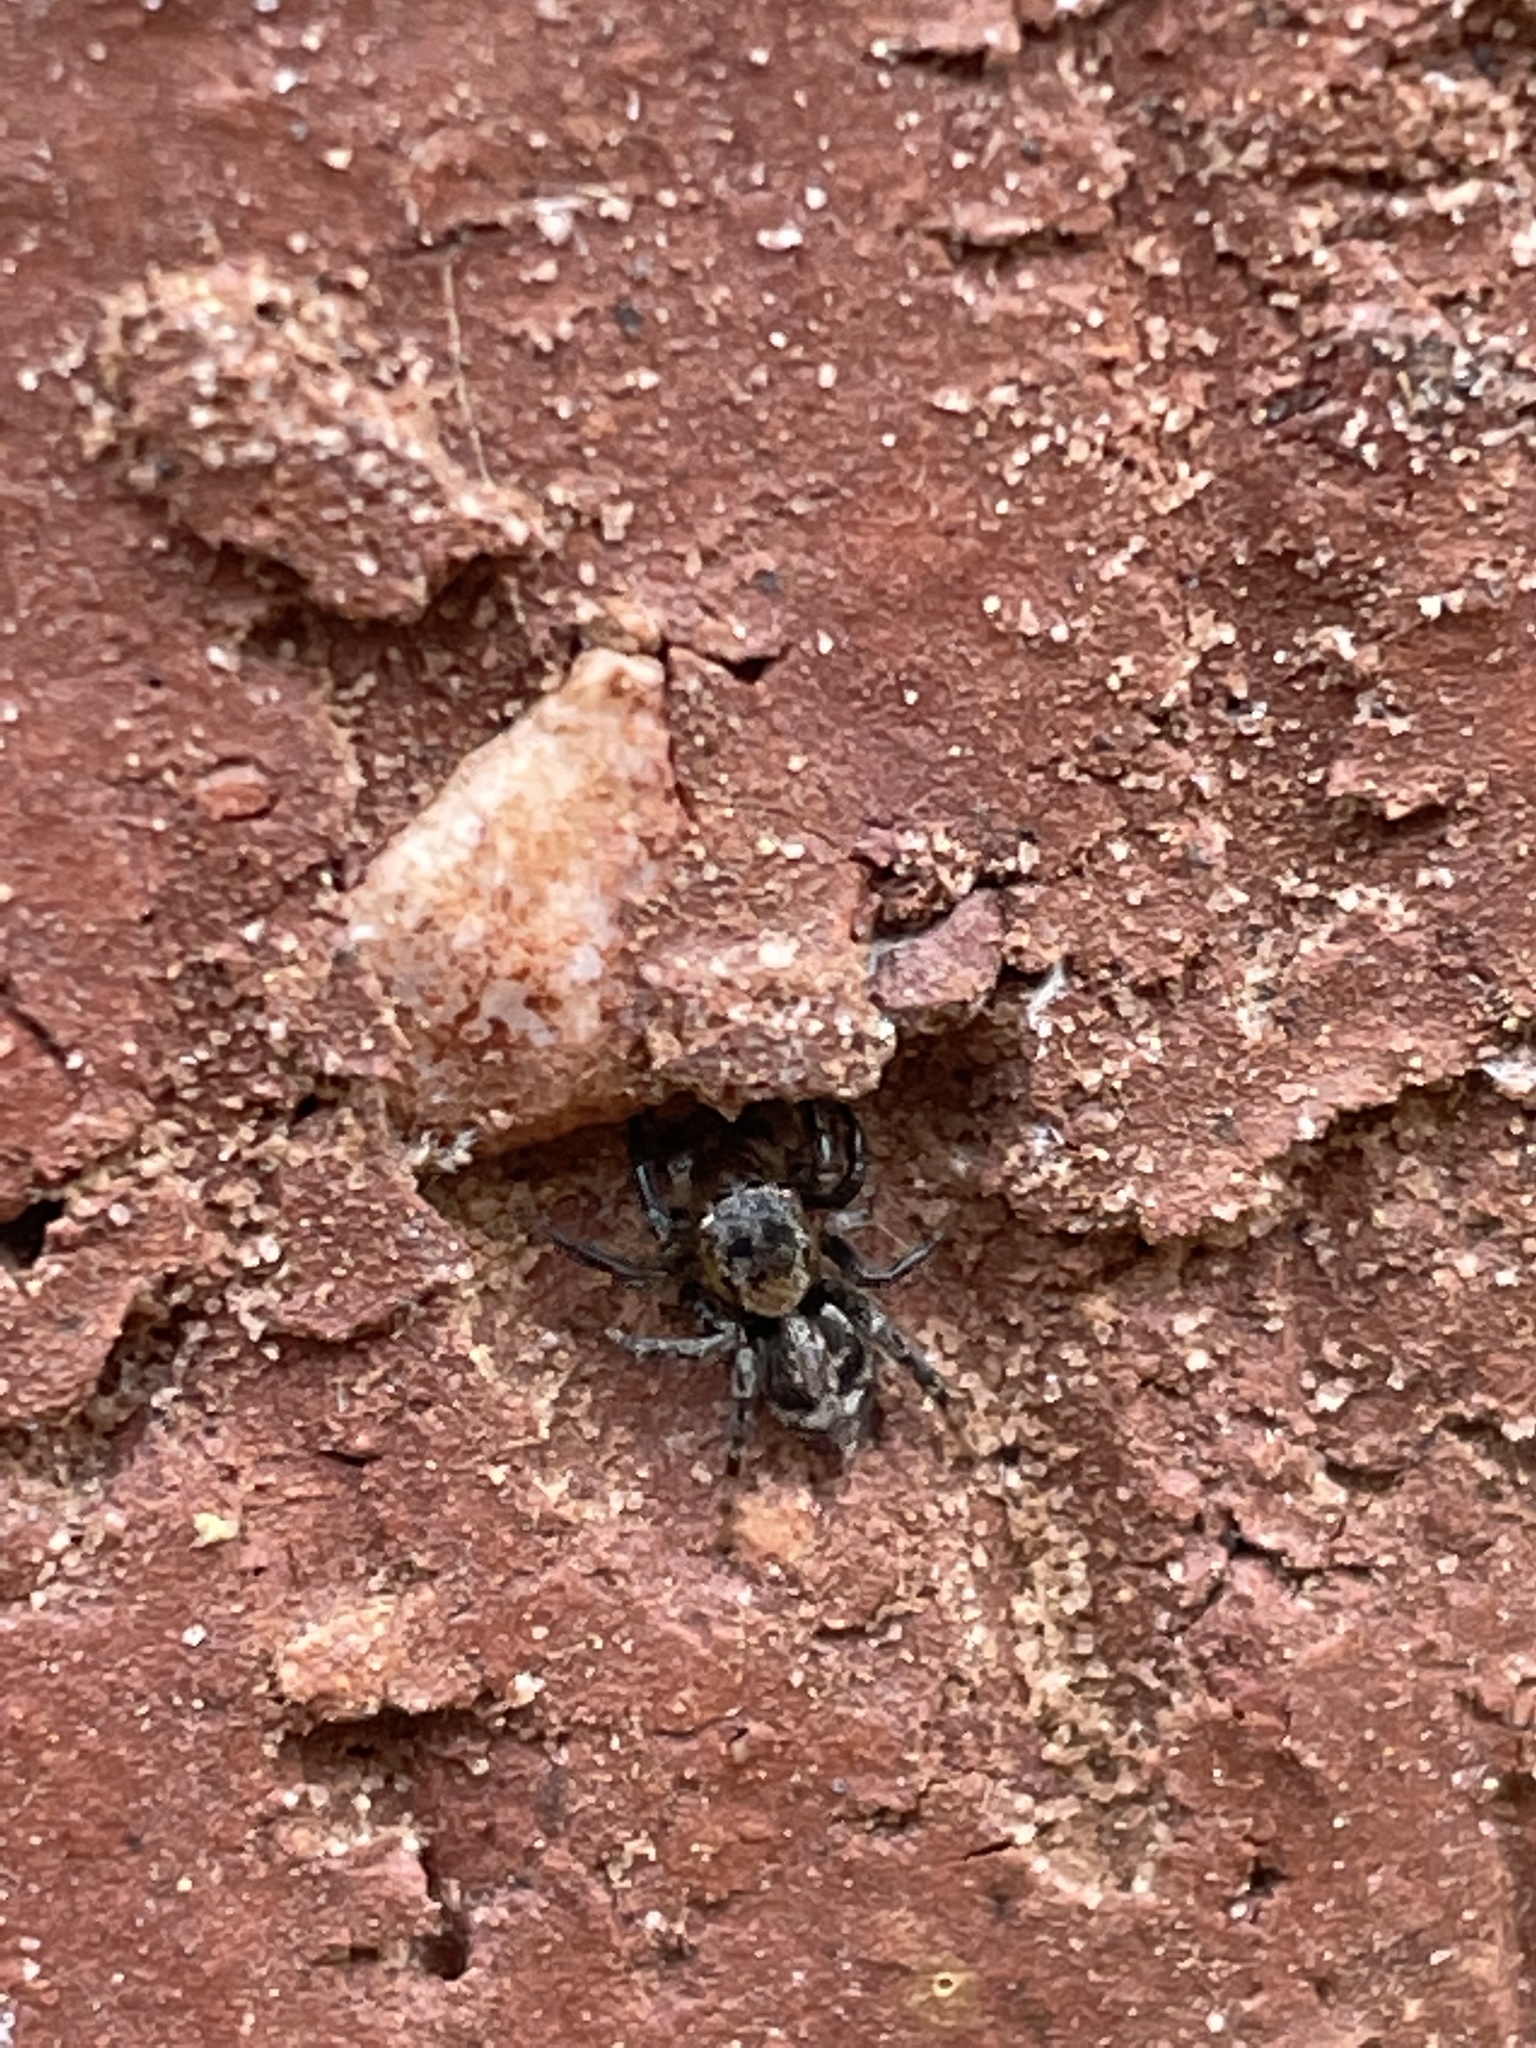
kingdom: Animalia
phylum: Arthropoda
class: Arachnida
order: Araneae
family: Salticidae
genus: Naphrys
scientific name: Naphrys pulex
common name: Flea jumping spider
